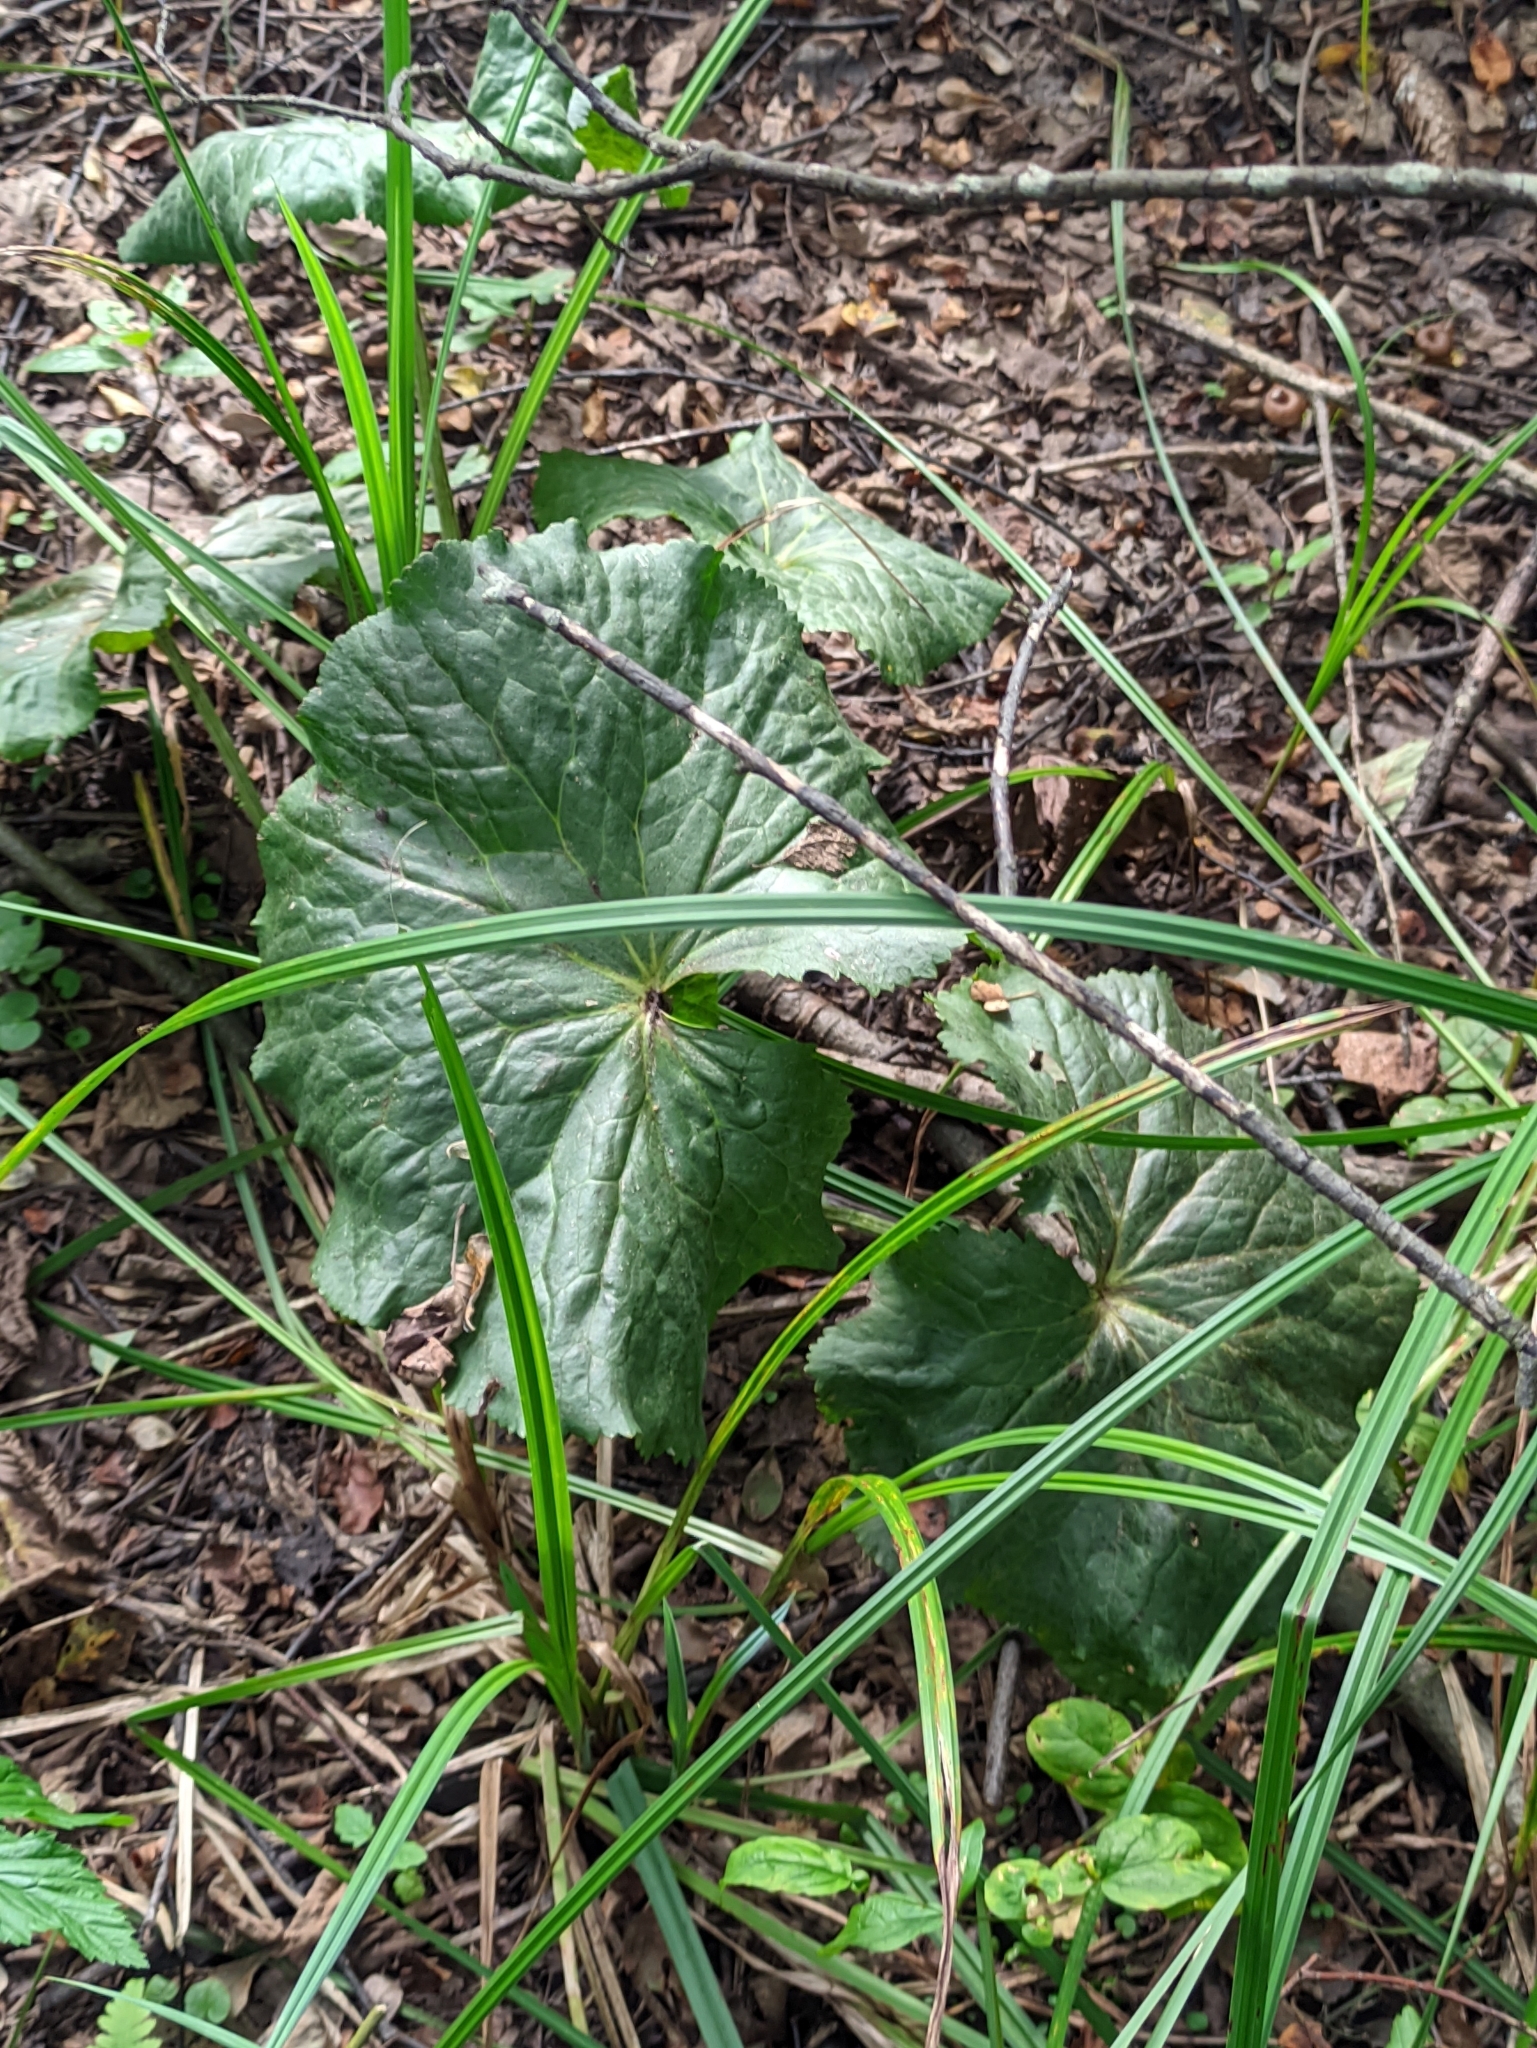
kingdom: Plantae
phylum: Tracheophyta
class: Magnoliopsida
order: Ranunculales
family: Ranunculaceae
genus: Caltha
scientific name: Caltha palustris
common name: Marsh marigold
